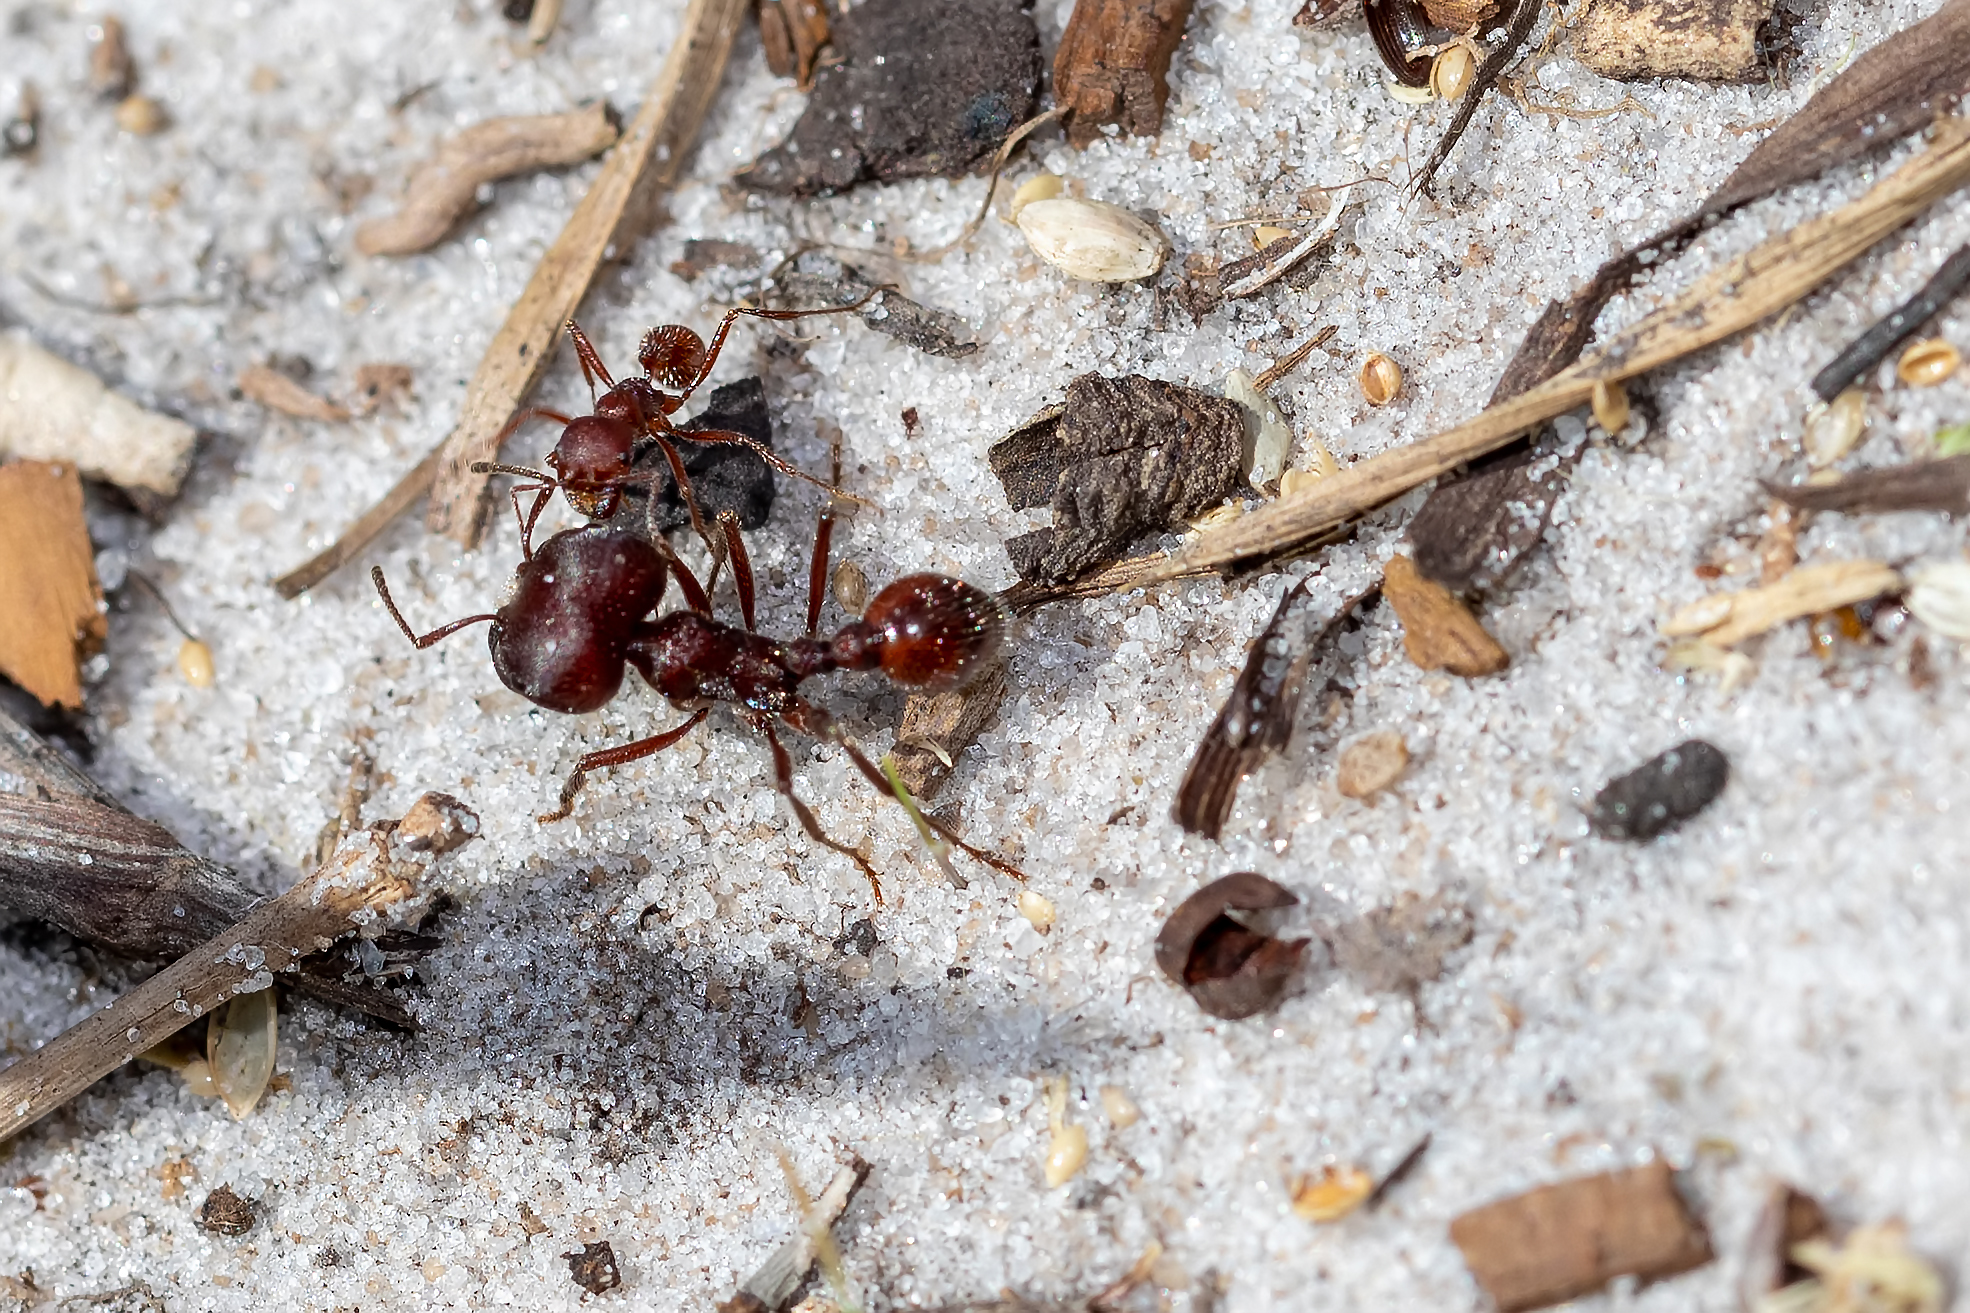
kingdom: Animalia
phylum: Arthropoda
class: Insecta
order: Hymenoptera
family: Formicidae
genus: Pogonomyrmex
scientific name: Pogonomyrmex badius
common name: Florida harvester ant
